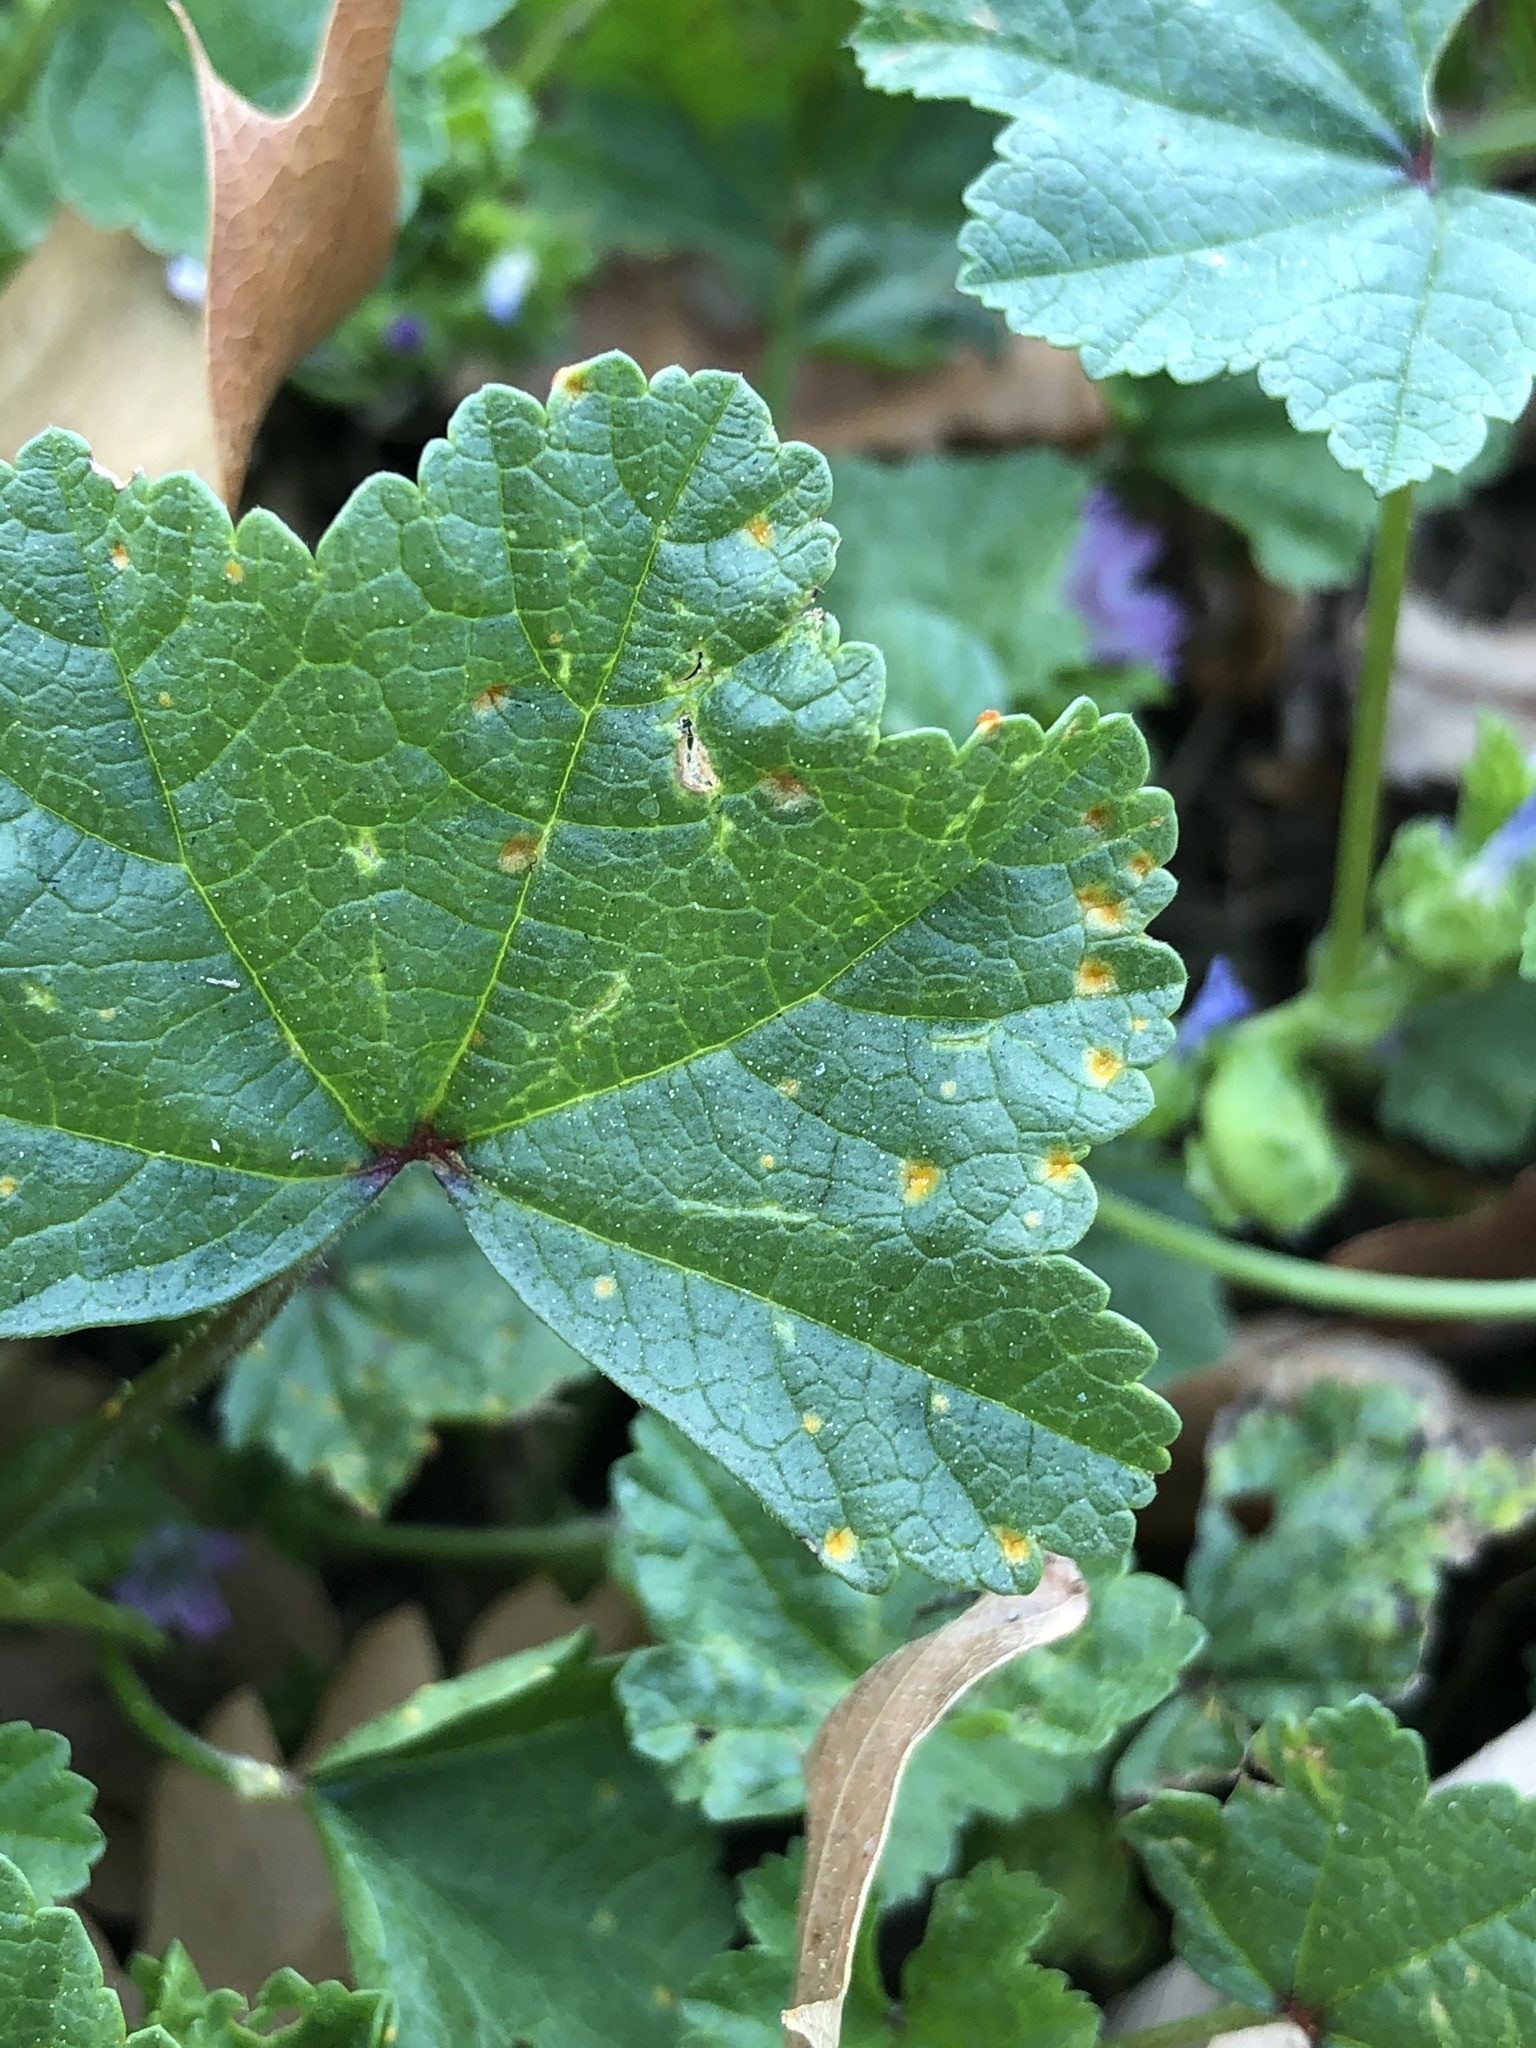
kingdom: Fungi
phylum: Basidiomycota
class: Pucciniomycetes
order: Pucciniales
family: Pucciniaceae
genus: Puccinia
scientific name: Puccinia malvacearum
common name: Hollyhock rust
